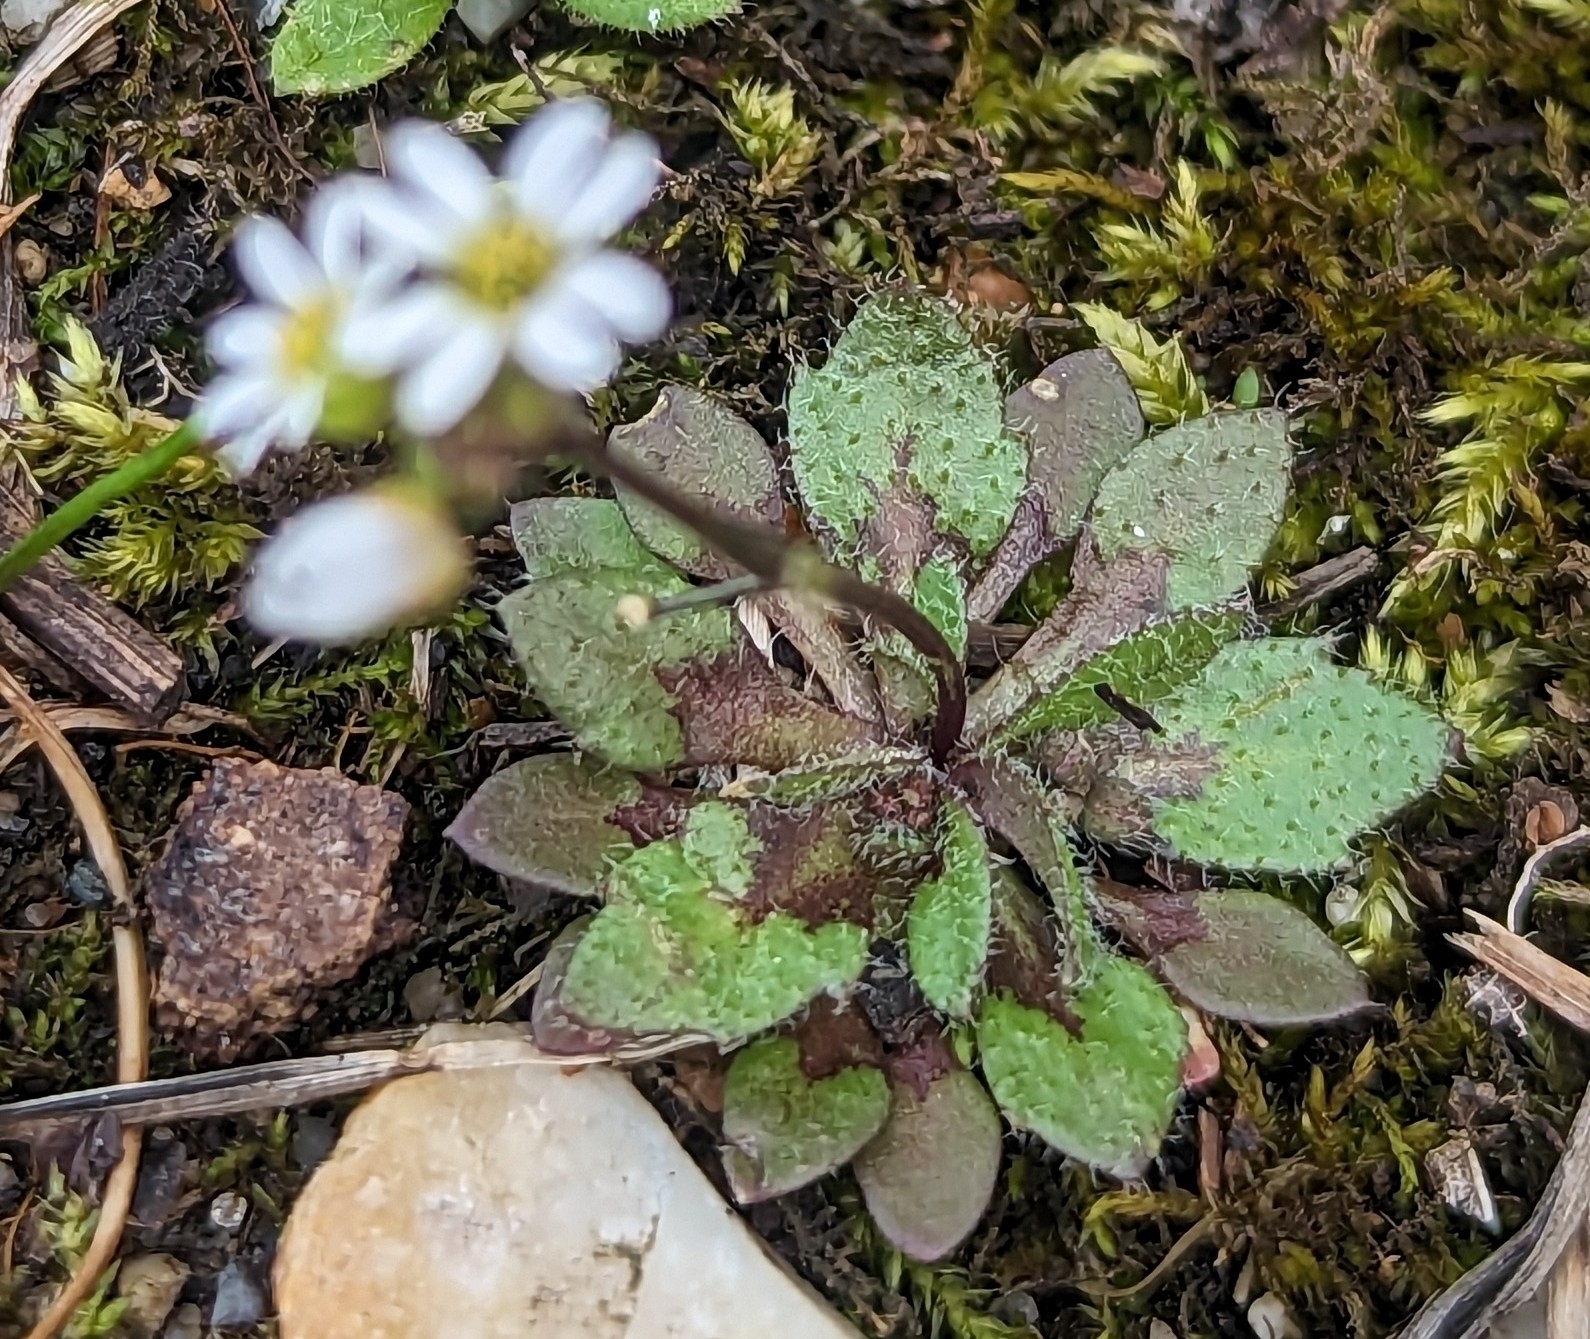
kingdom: Plantae
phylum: Tracheophyta
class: Magnoliopsida
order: Brassicales
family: Brassicaceae
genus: Draba
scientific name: Draba verna
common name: Spring draba
